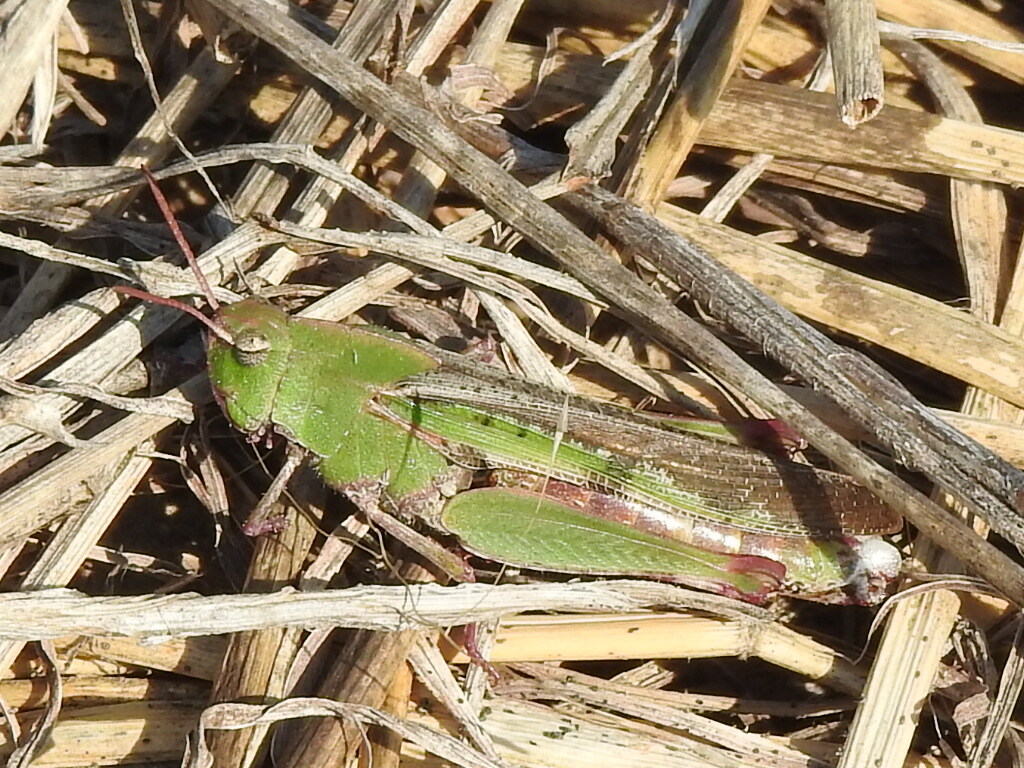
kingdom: Animalia
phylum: Arthropoda
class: Insecta
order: Orthoptera
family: Acrididae
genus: Chortophaga
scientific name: Chortophaga viridifasciata
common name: Green-striped grasshopper
